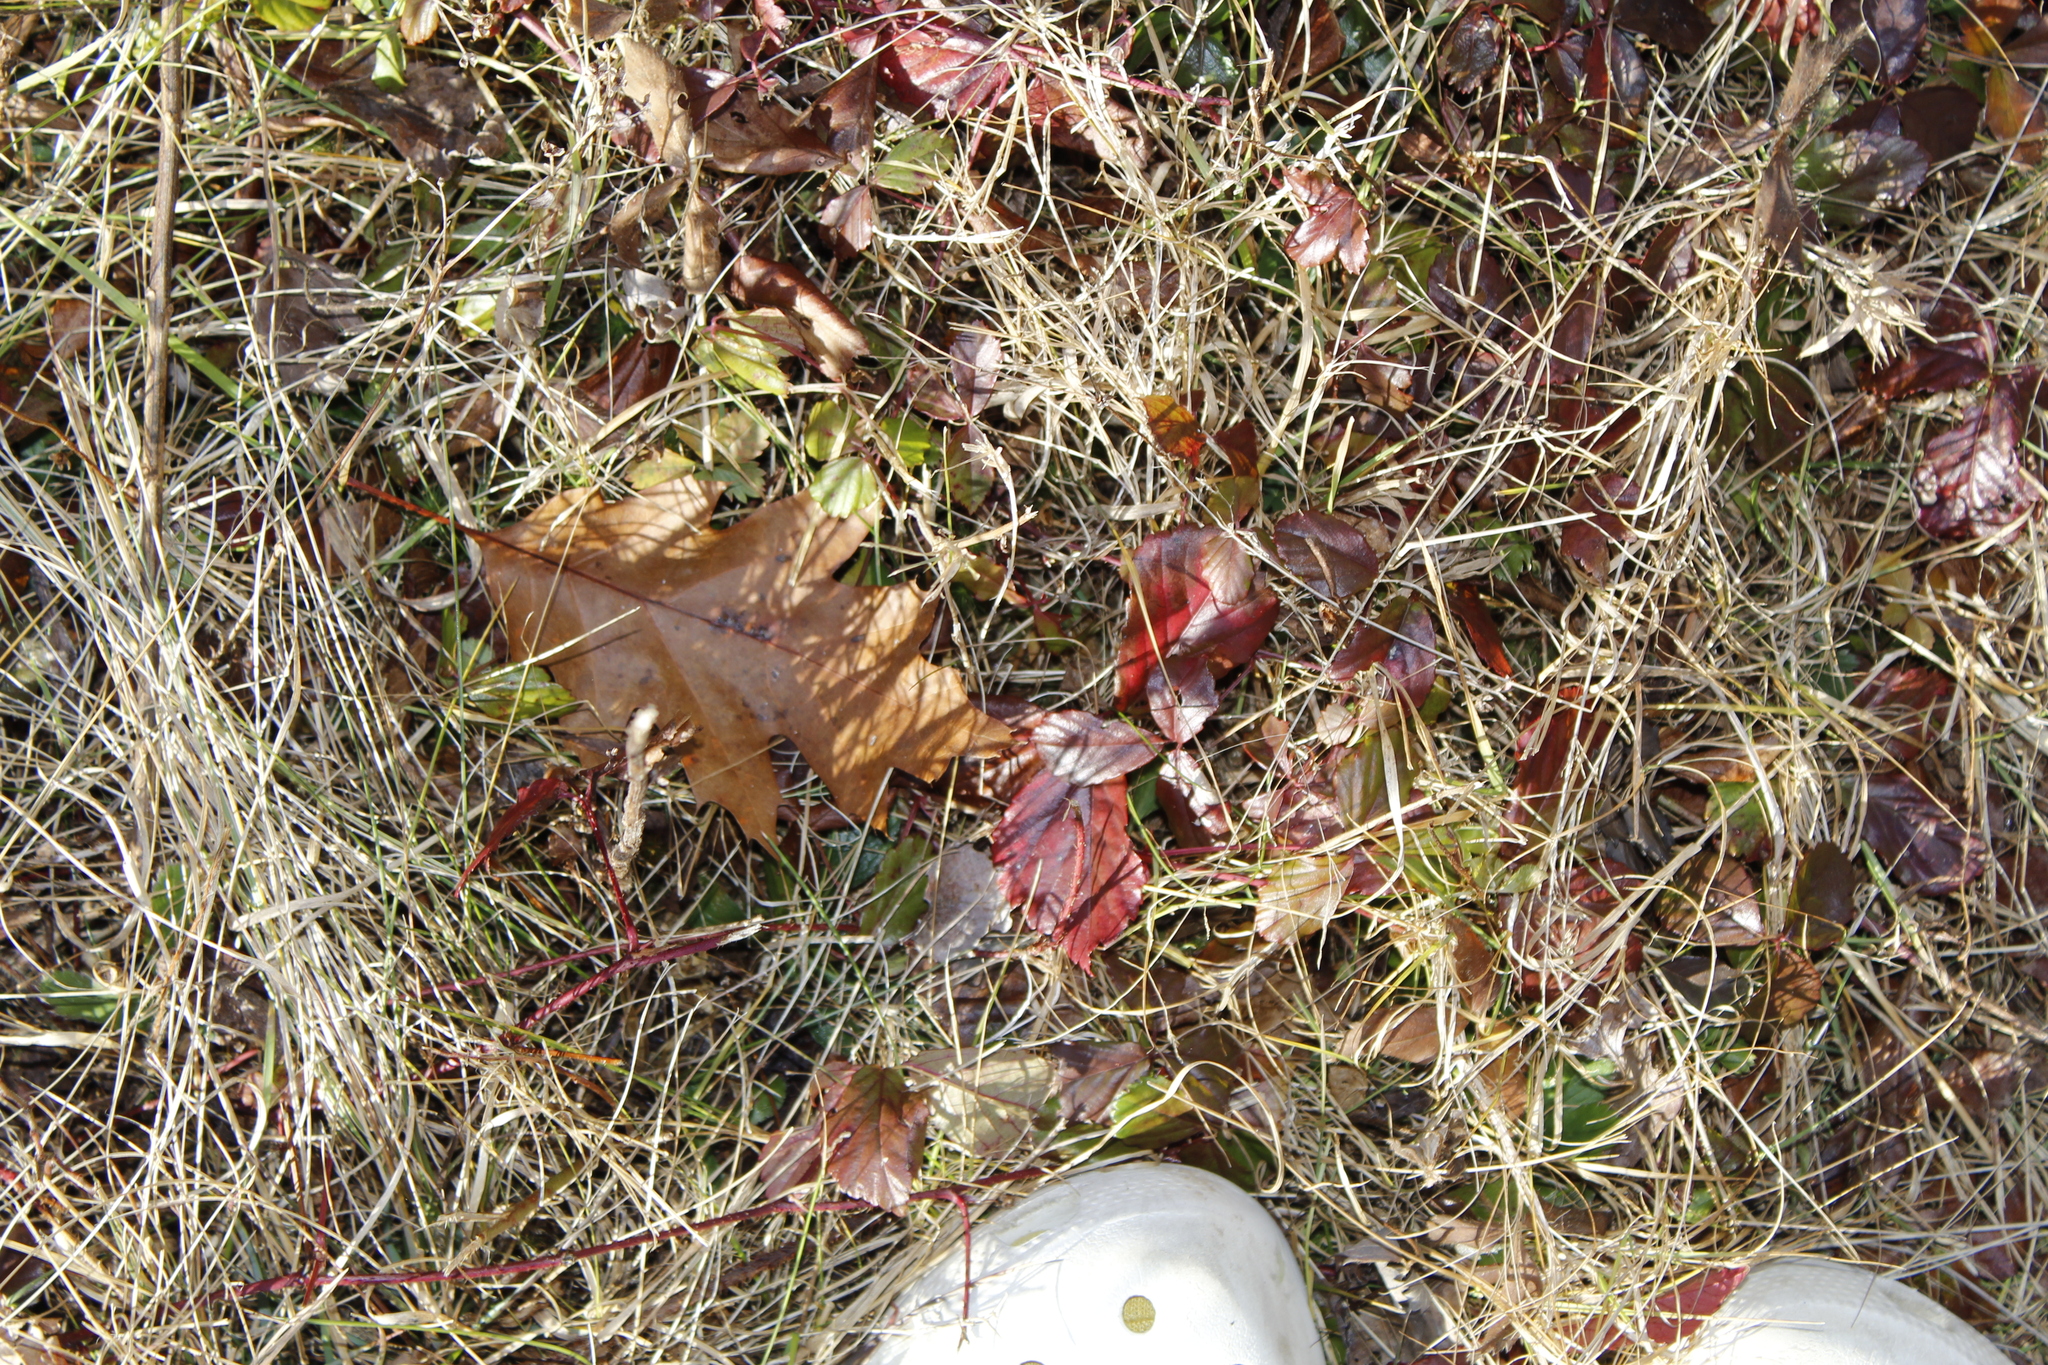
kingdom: Plantae
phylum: Tracheophyta
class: Magnoliopsida
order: Rosales
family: Rosaceae
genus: Rubus
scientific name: Rubus hispidus
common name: Running blackberry
